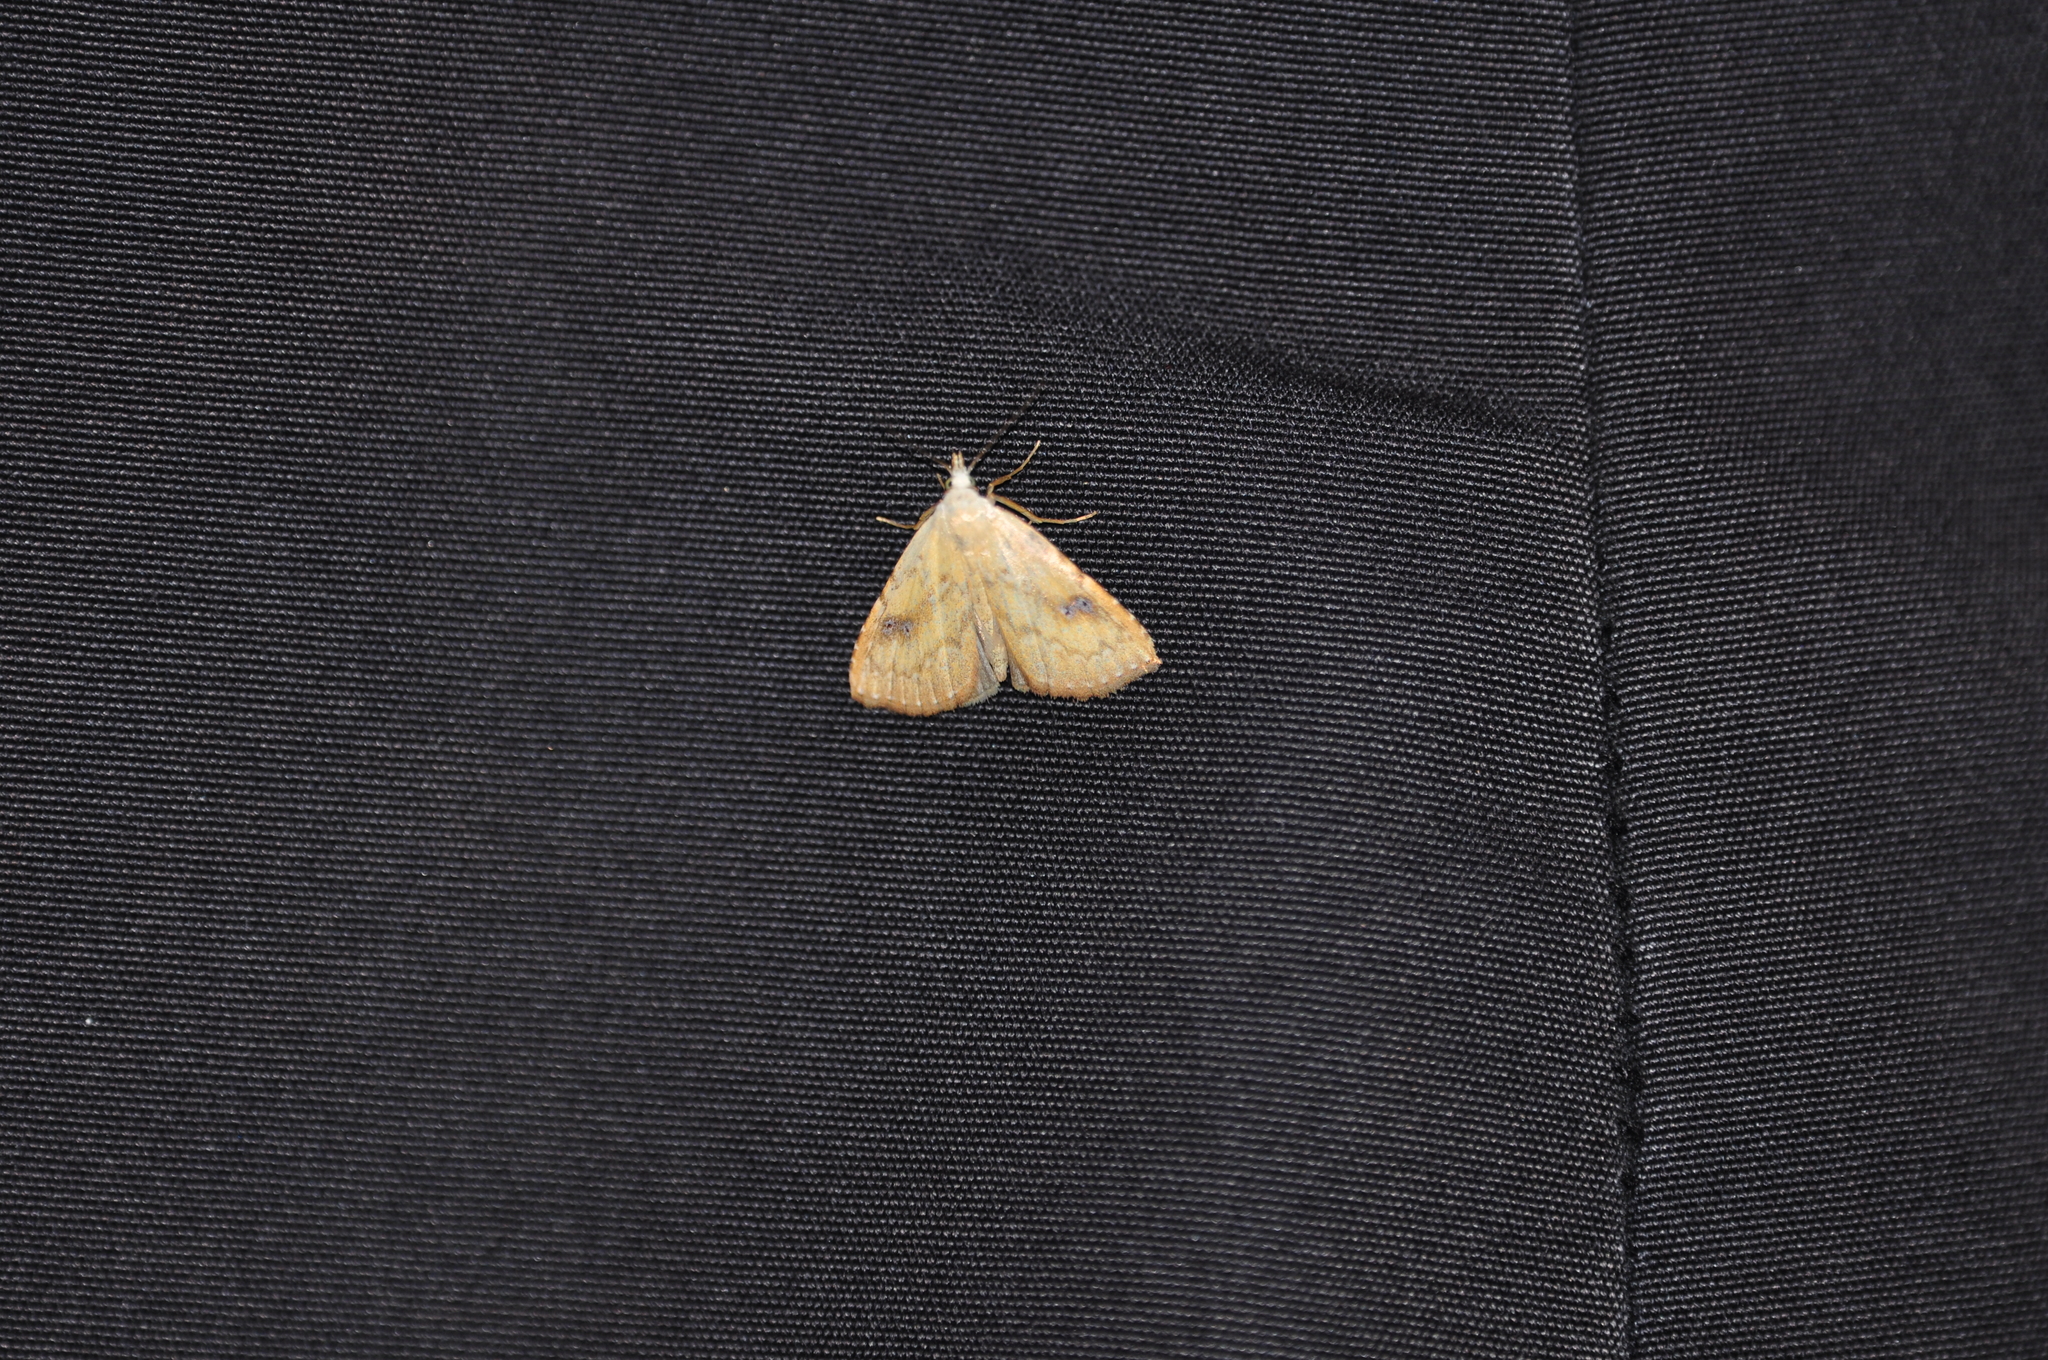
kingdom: Animalia
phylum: Arthropoda
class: Insecta
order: Lepidoptera
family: Erebidae
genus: Rivula
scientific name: Rivula sericealis
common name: Straw dot
